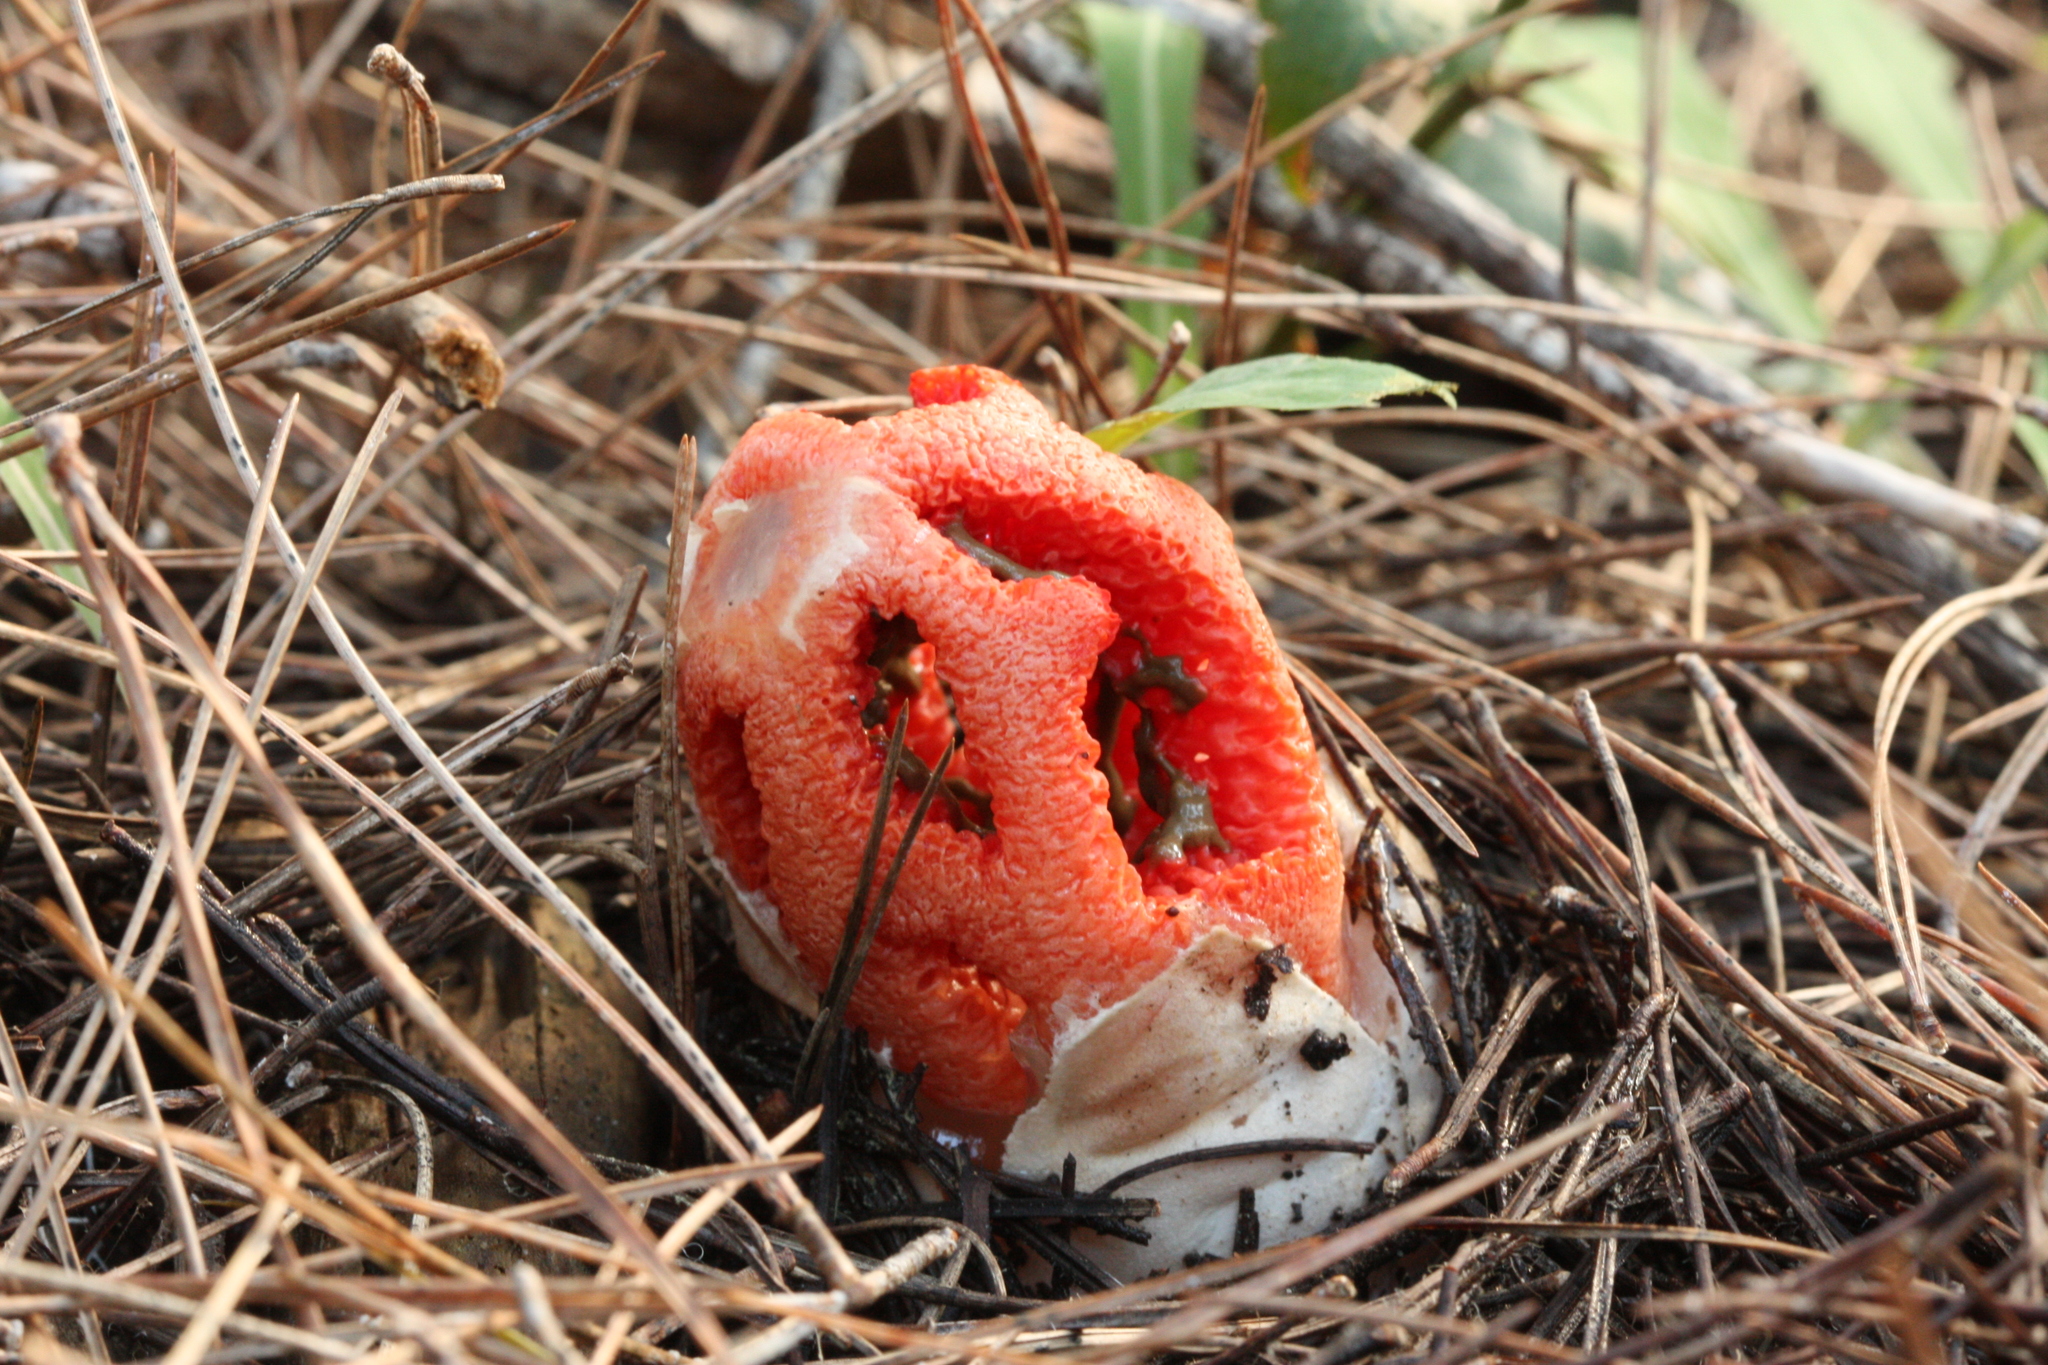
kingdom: Fungi
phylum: Basidiomycota
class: Agaricomycetes
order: Phallales
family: Phallaceae
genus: Clathrus
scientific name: Clathrus ruber
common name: Red cage
